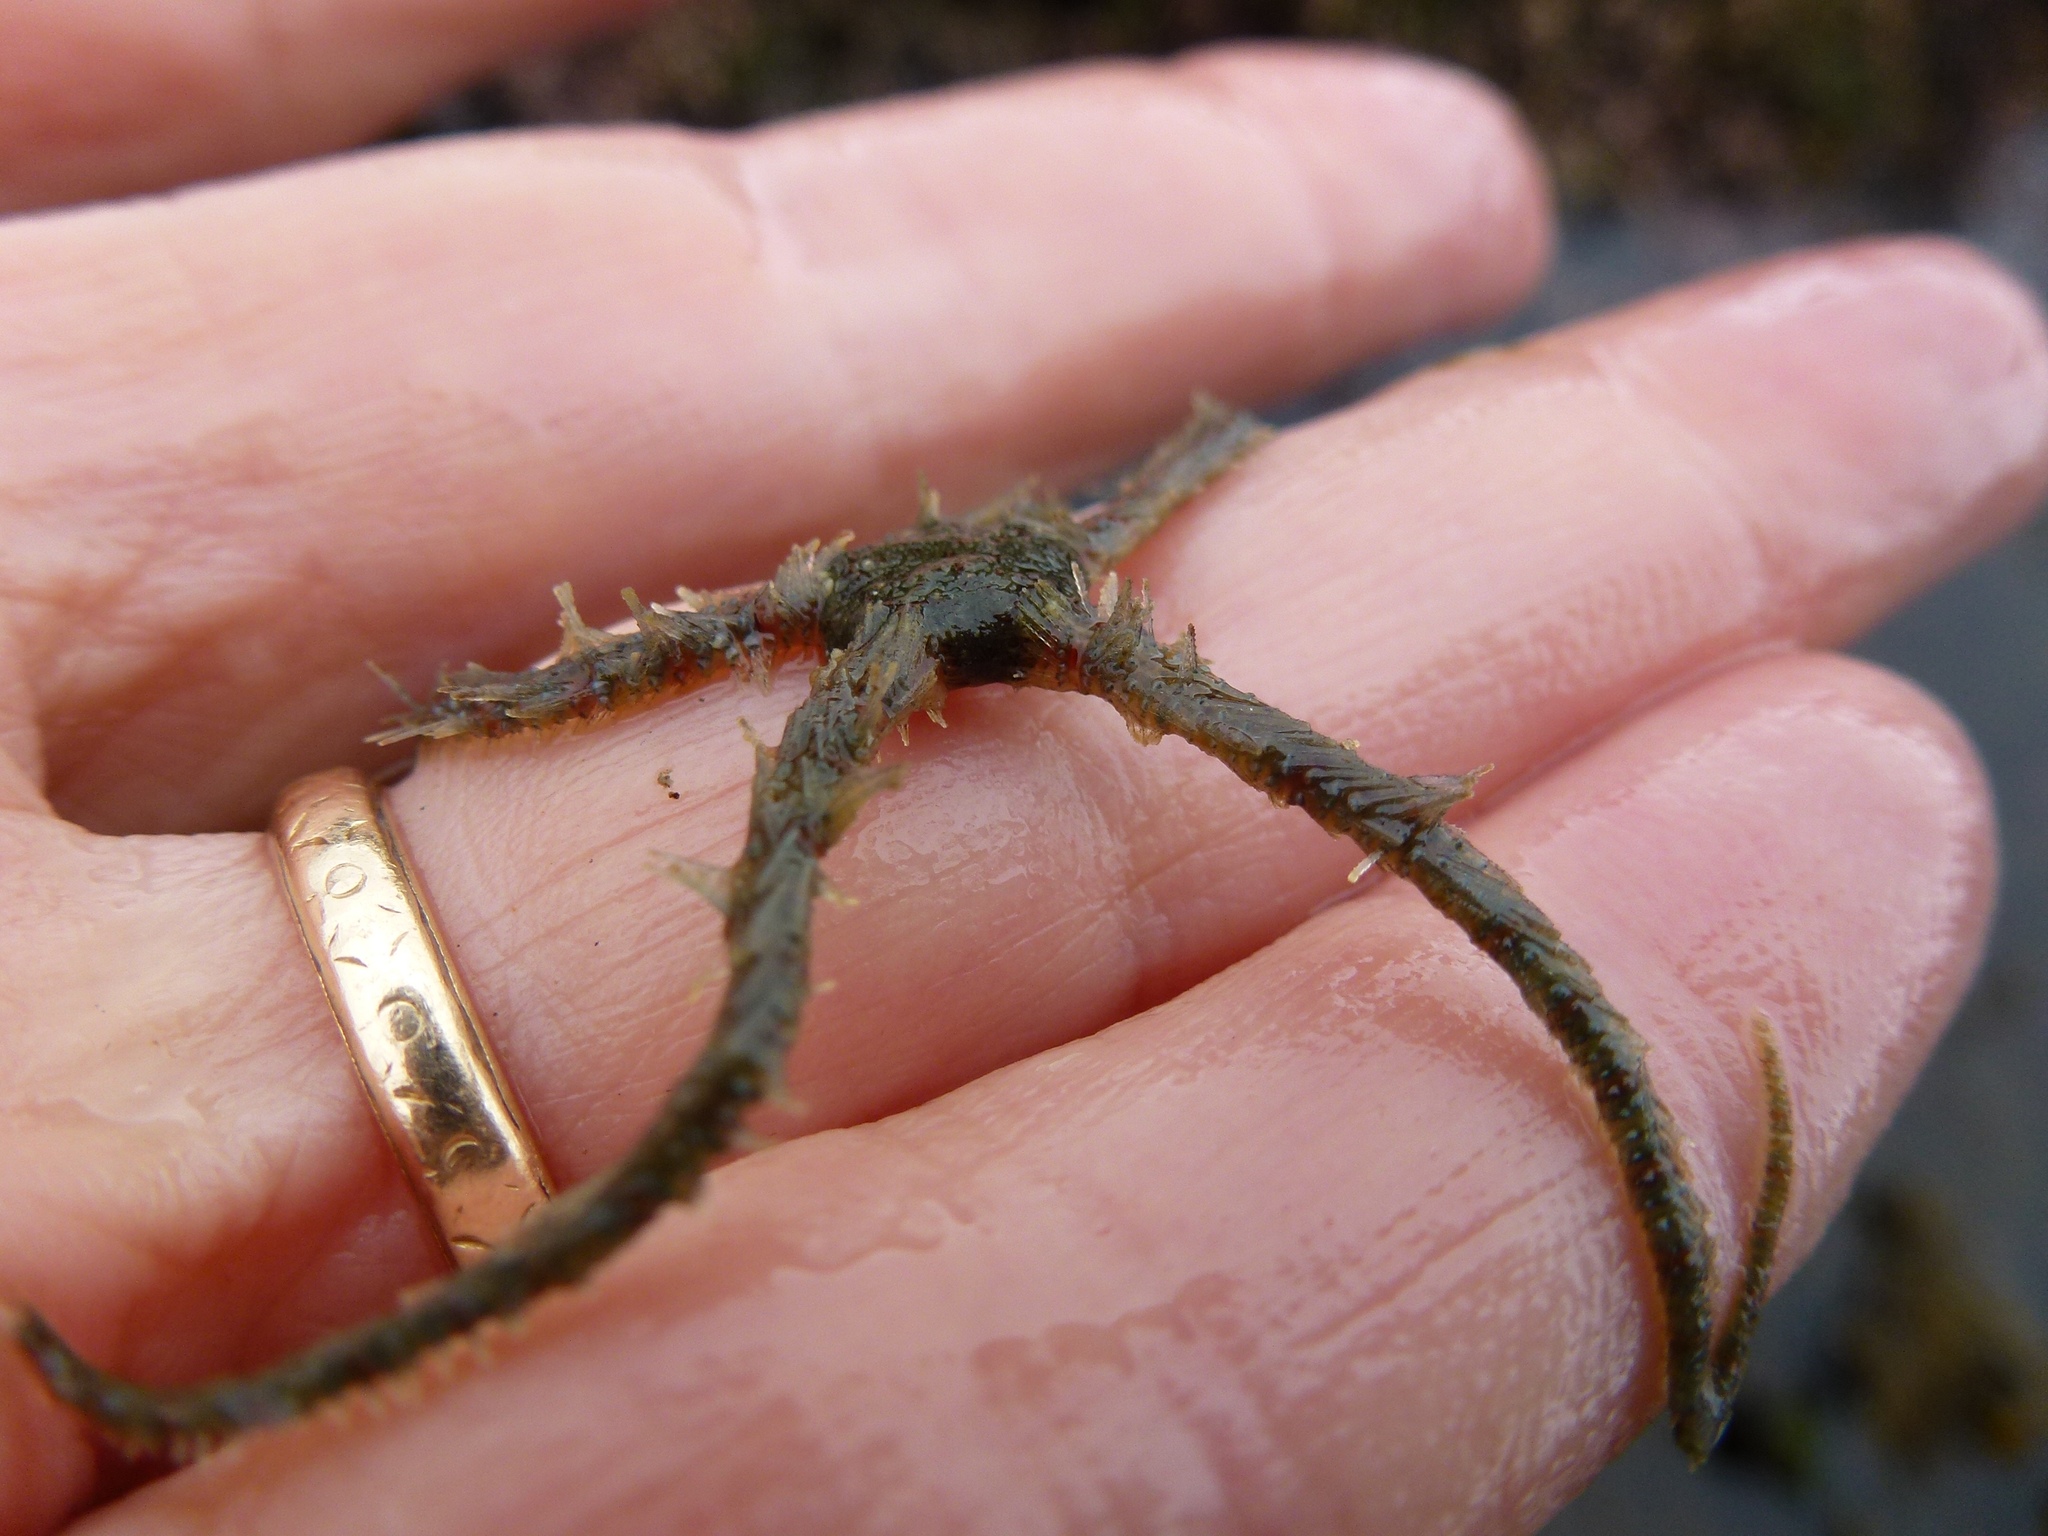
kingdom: Animalia
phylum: Echinodermata
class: Ophiuroidea
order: Amphilepidida
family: Ophiotrichidae
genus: Ophiothrix
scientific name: Ophiothrix spiculata
